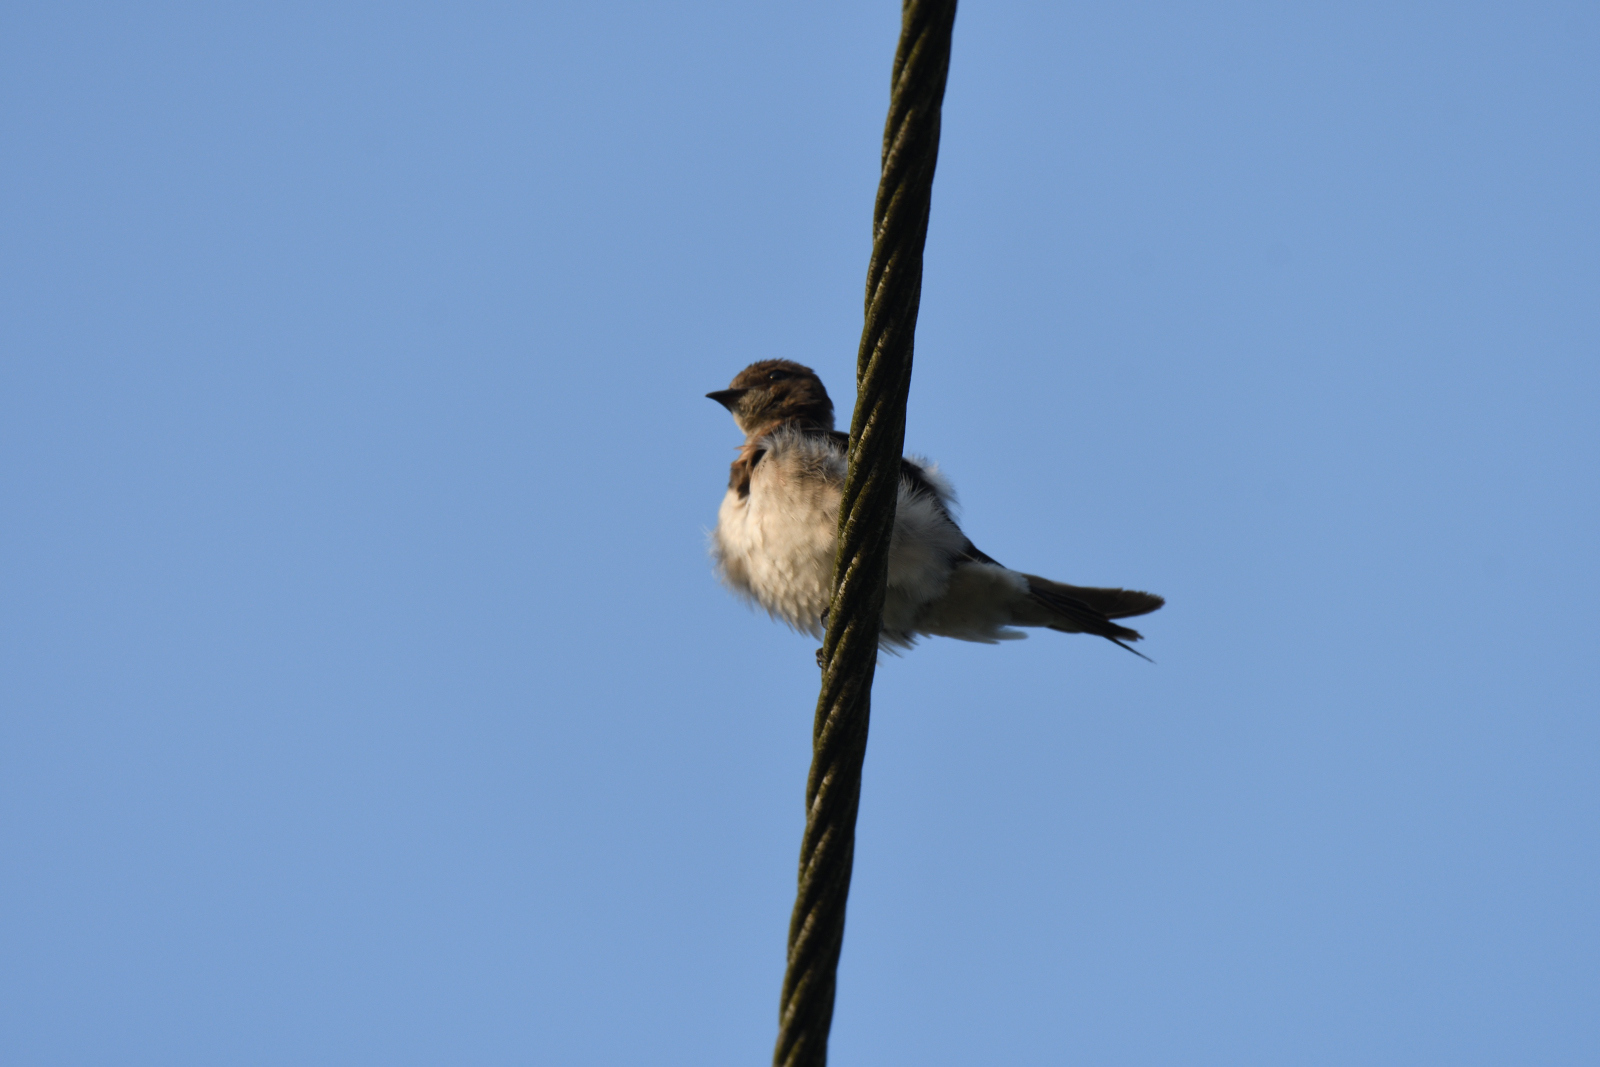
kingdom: Animalia
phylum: Chordata
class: Aves
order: Passeriformes
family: Hirundinidae
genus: Hirundo
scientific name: Hirundo smithii
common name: Wire-tailed swallow
